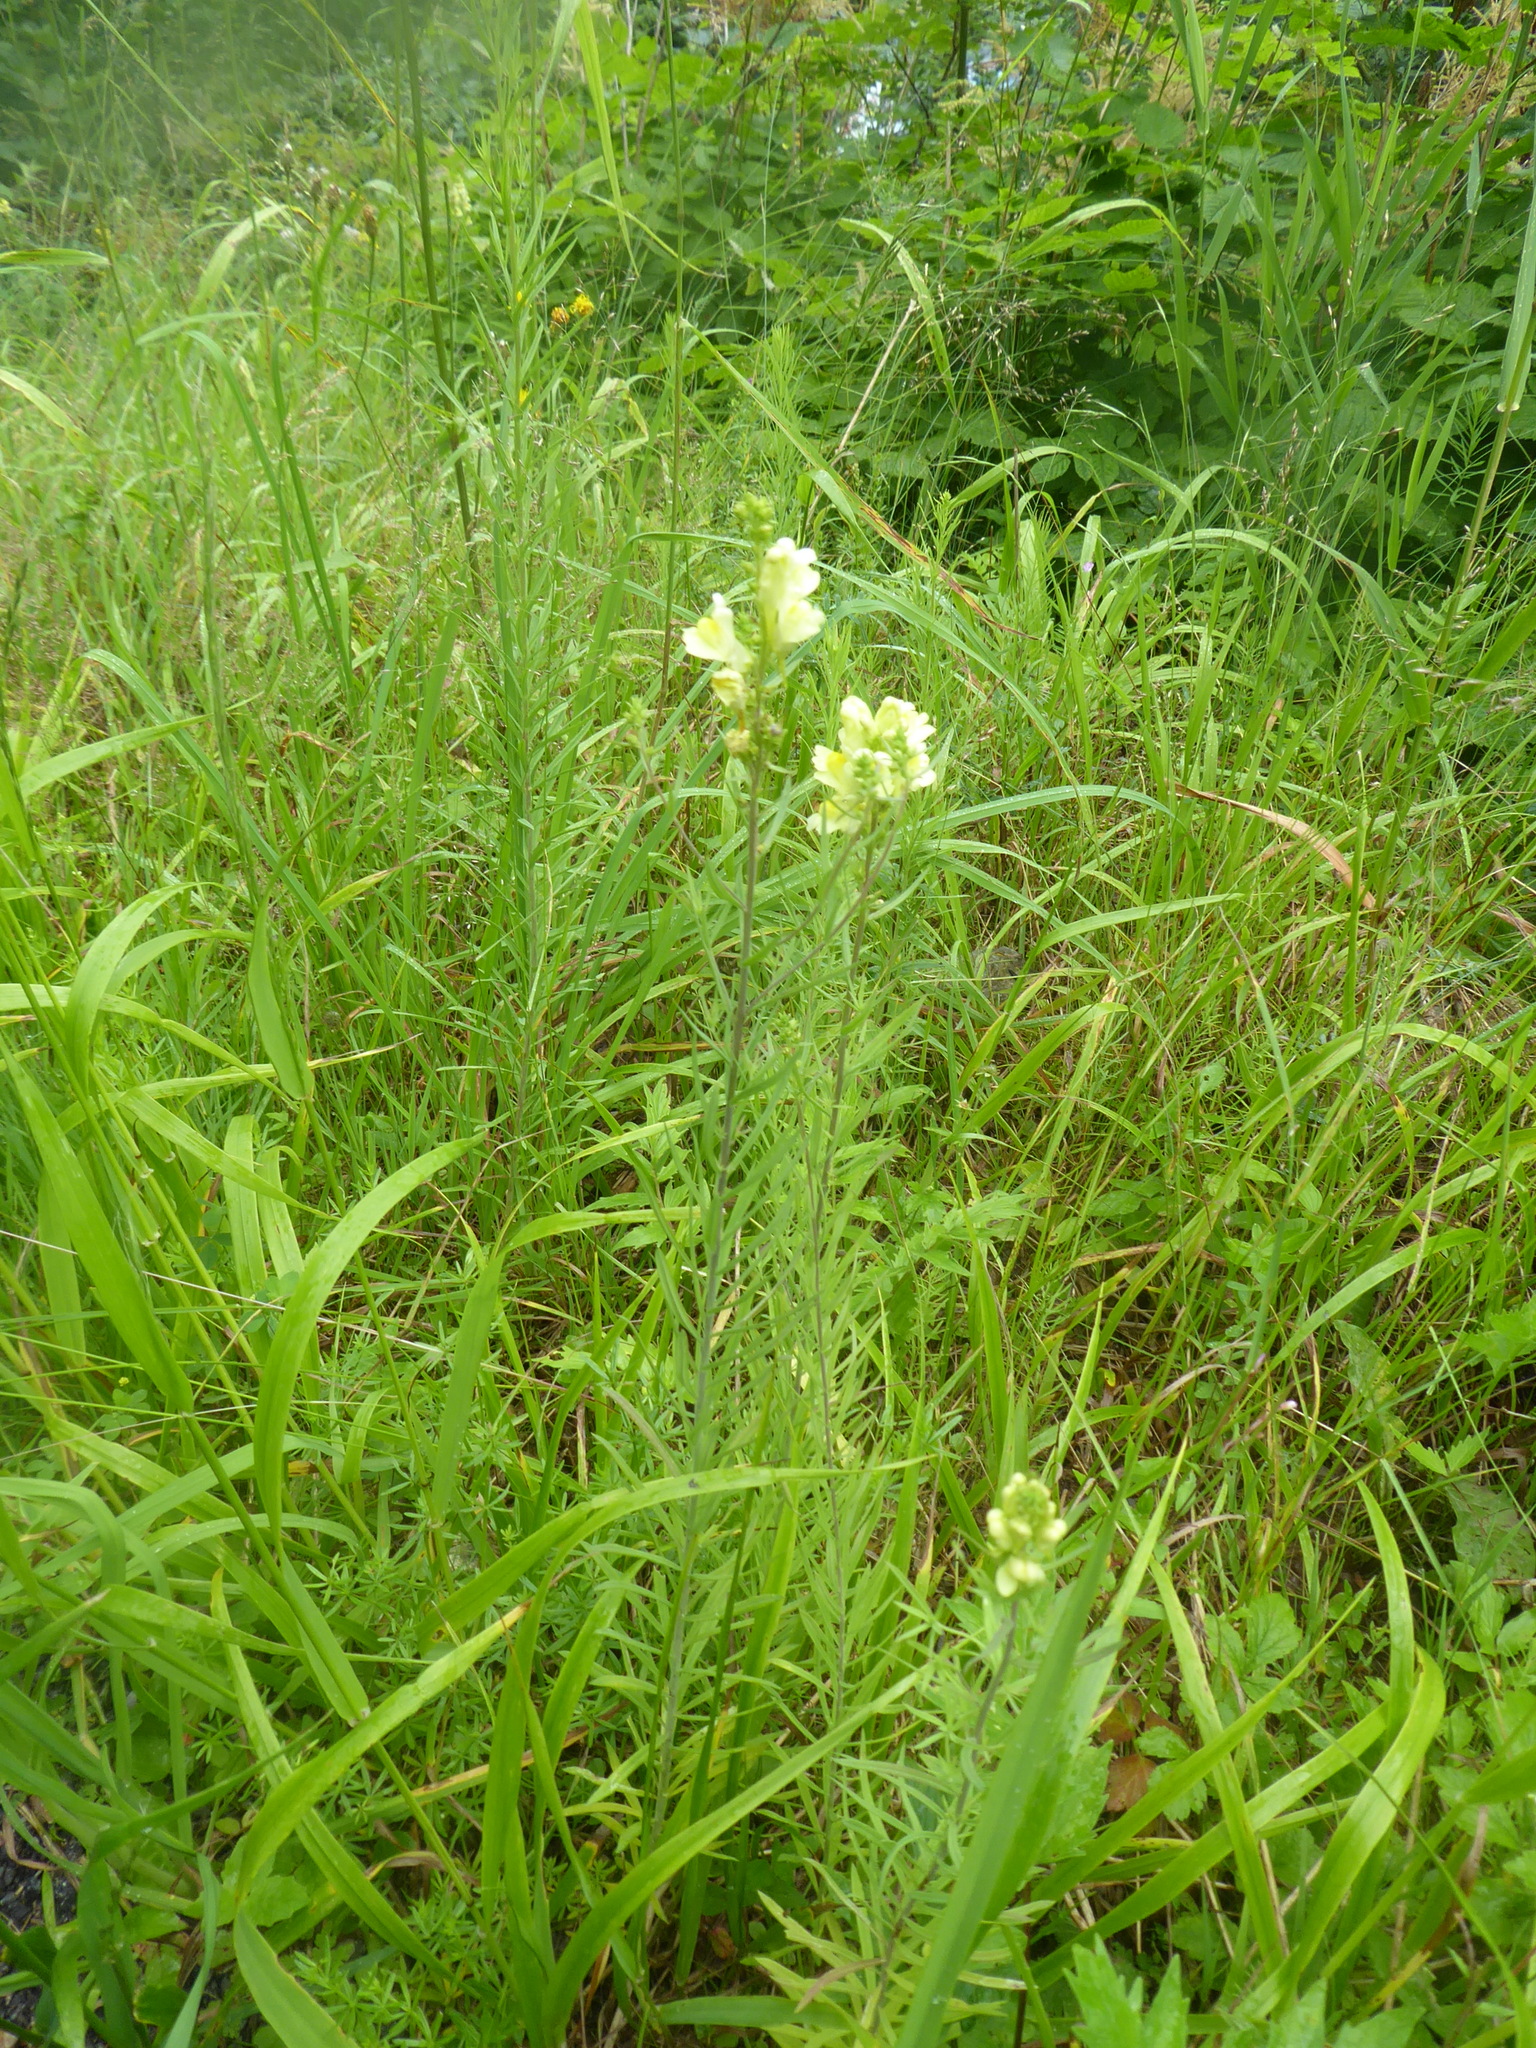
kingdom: Plantae
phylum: Tracheophyta
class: Magnoliopsida
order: Lamiales
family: Plantaginaceae
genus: Linaria
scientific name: Linaria vulgaris
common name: Butter and eggs
